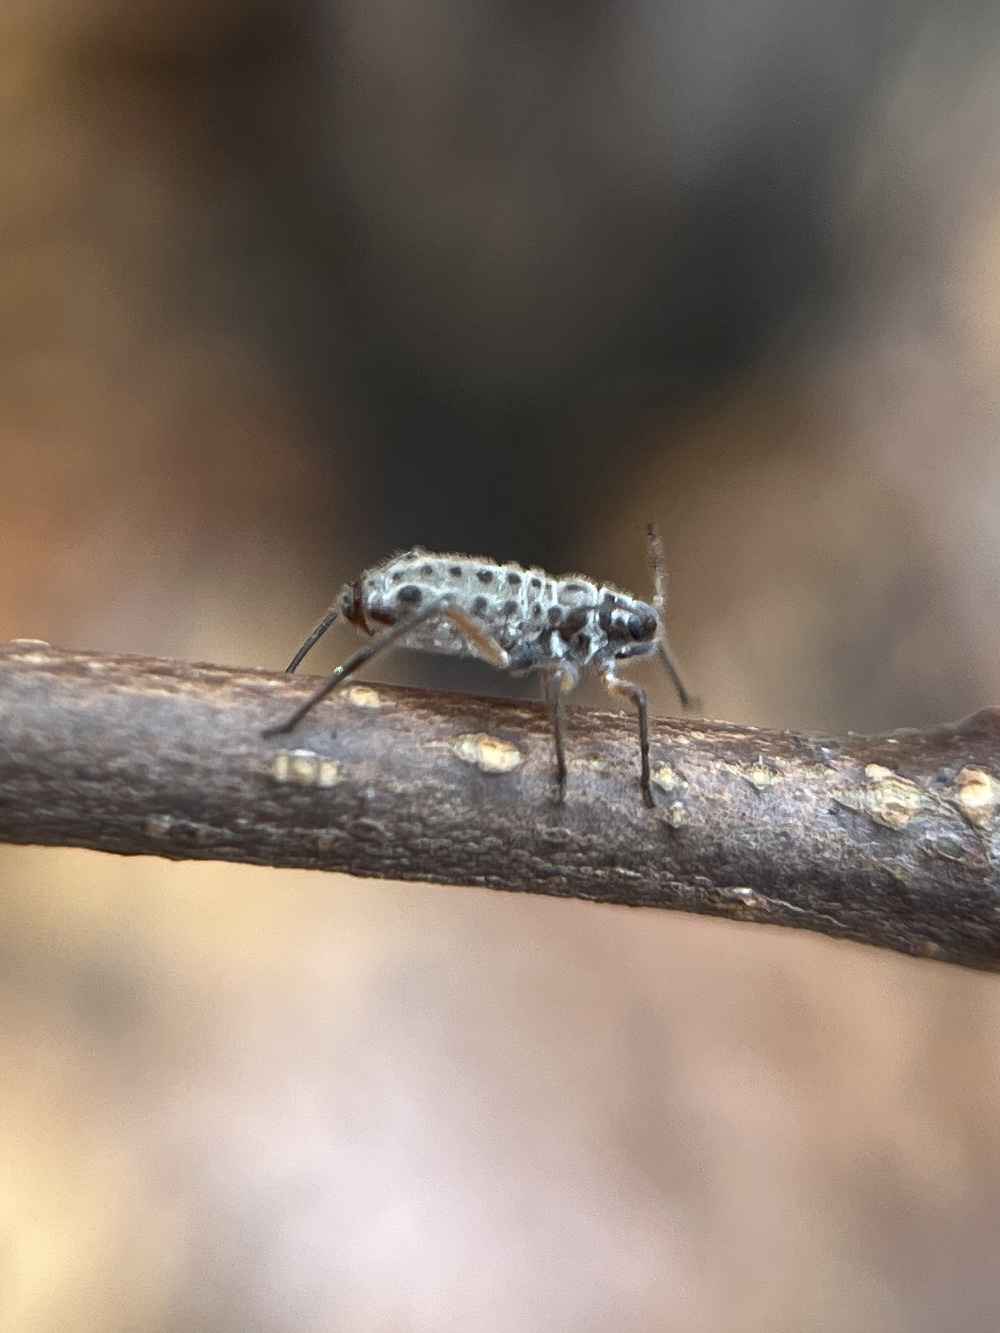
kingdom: Animalia
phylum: Arthropoda
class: Insecta
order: Hemiptera
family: Aphididae
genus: Longistigma
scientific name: Longistigma caryae
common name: Giant bark aphid
